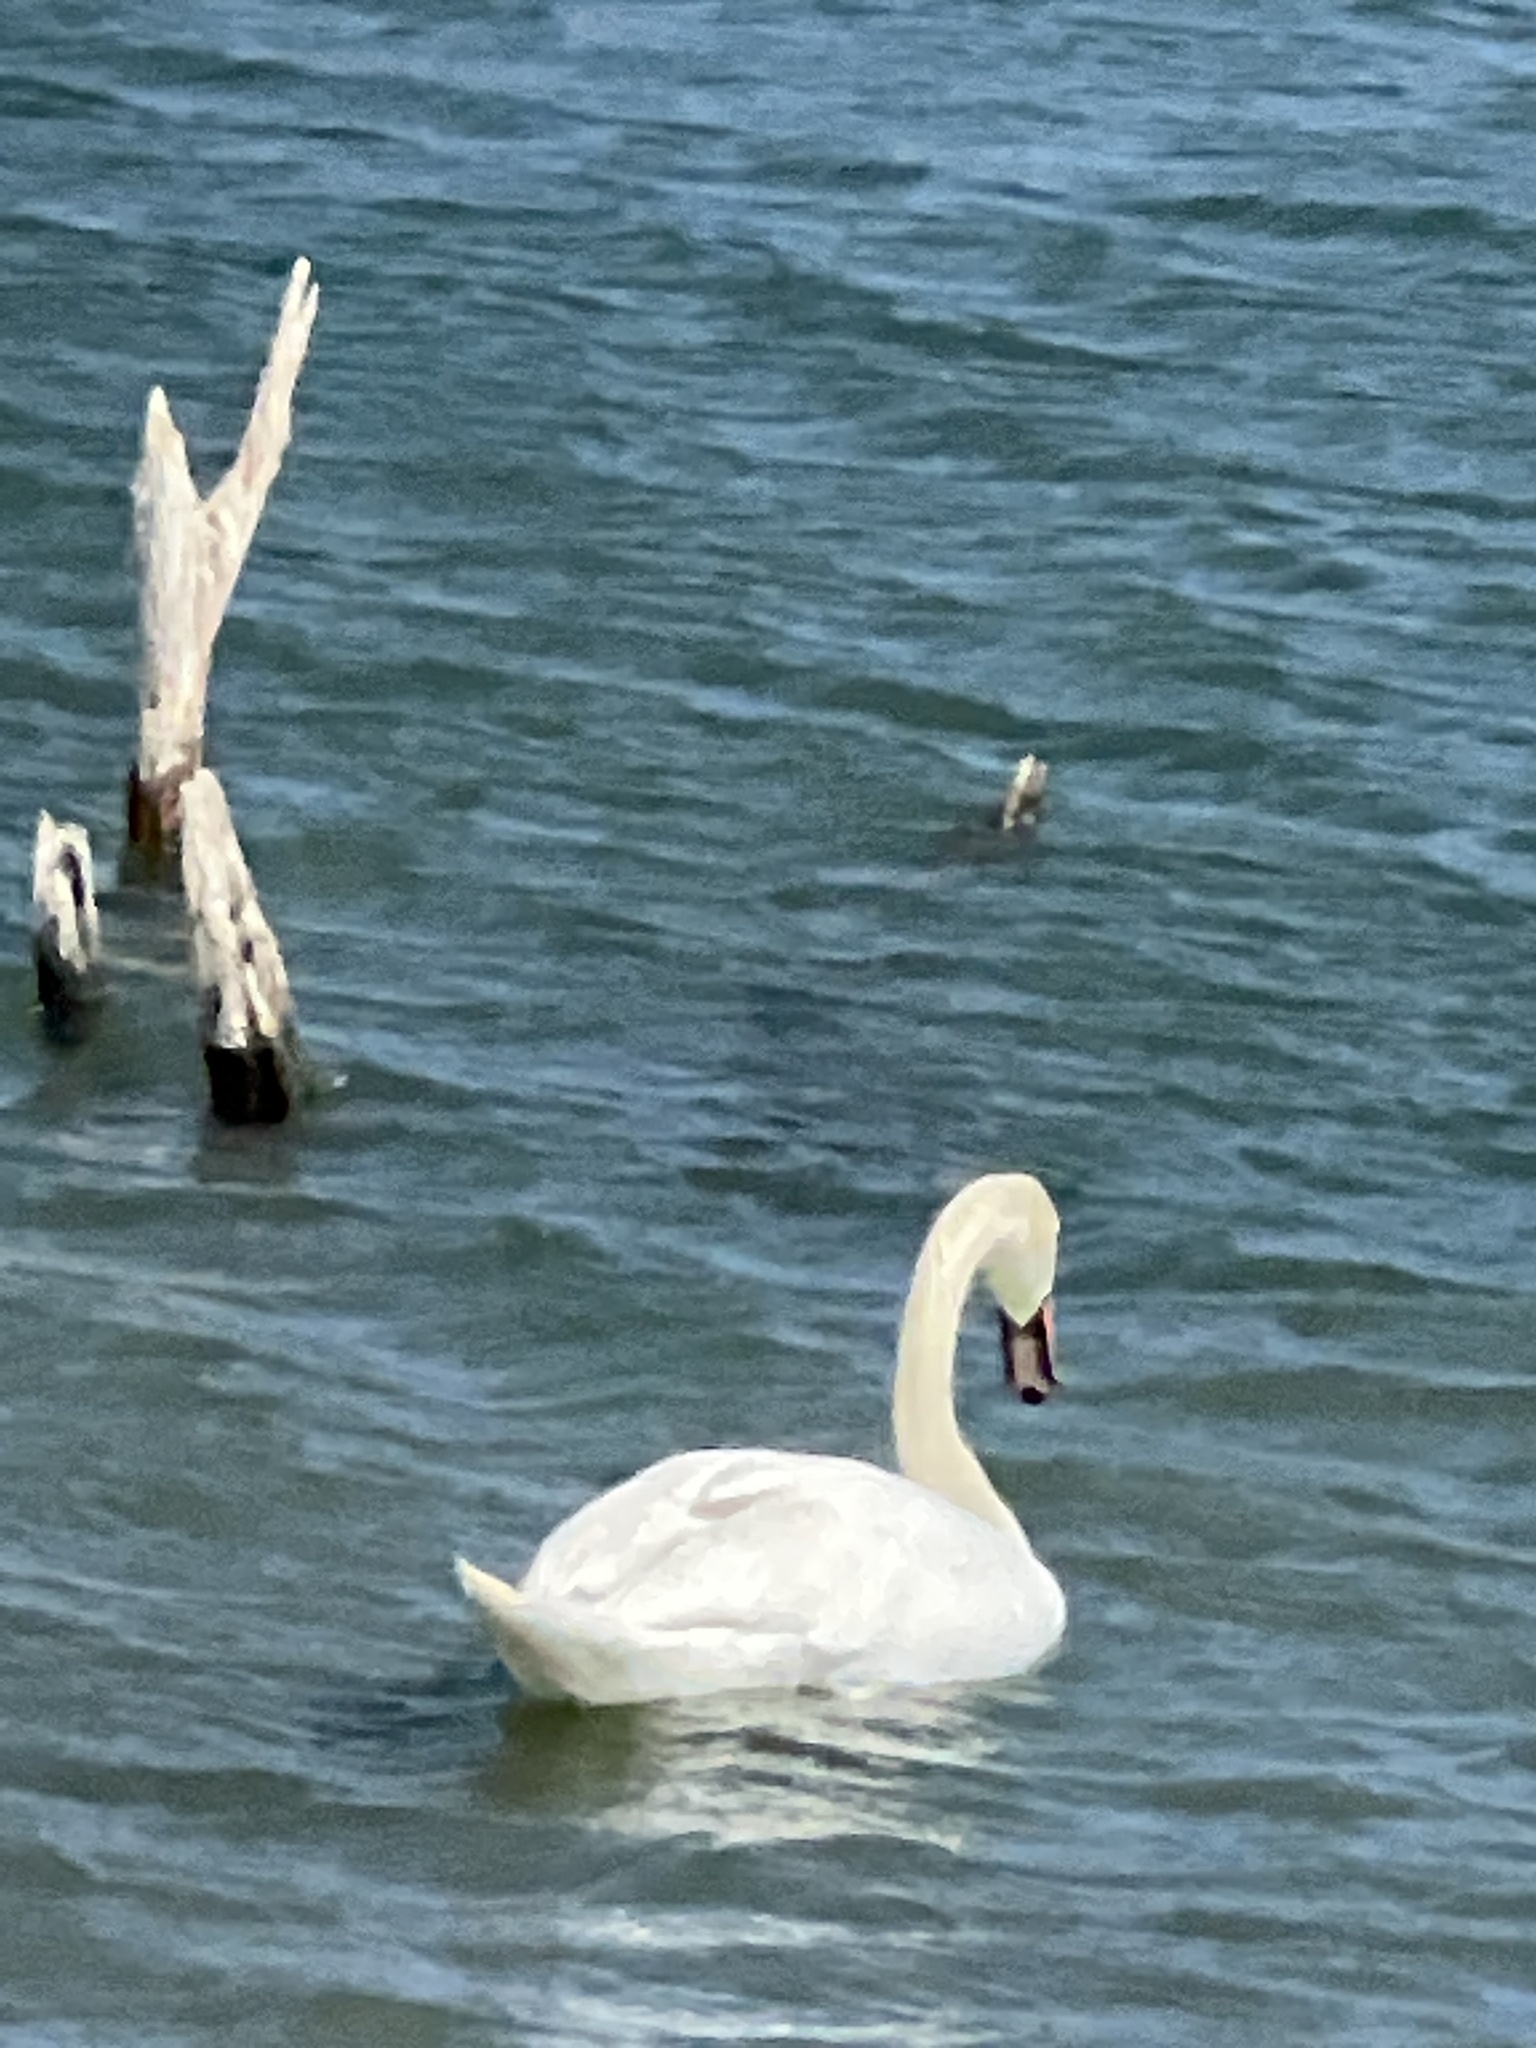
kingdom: Animalia
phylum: Chordata
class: Aves
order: Anseriformes
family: Anatidae
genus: Cygnus
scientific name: Cygnus olor
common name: Mute swan
